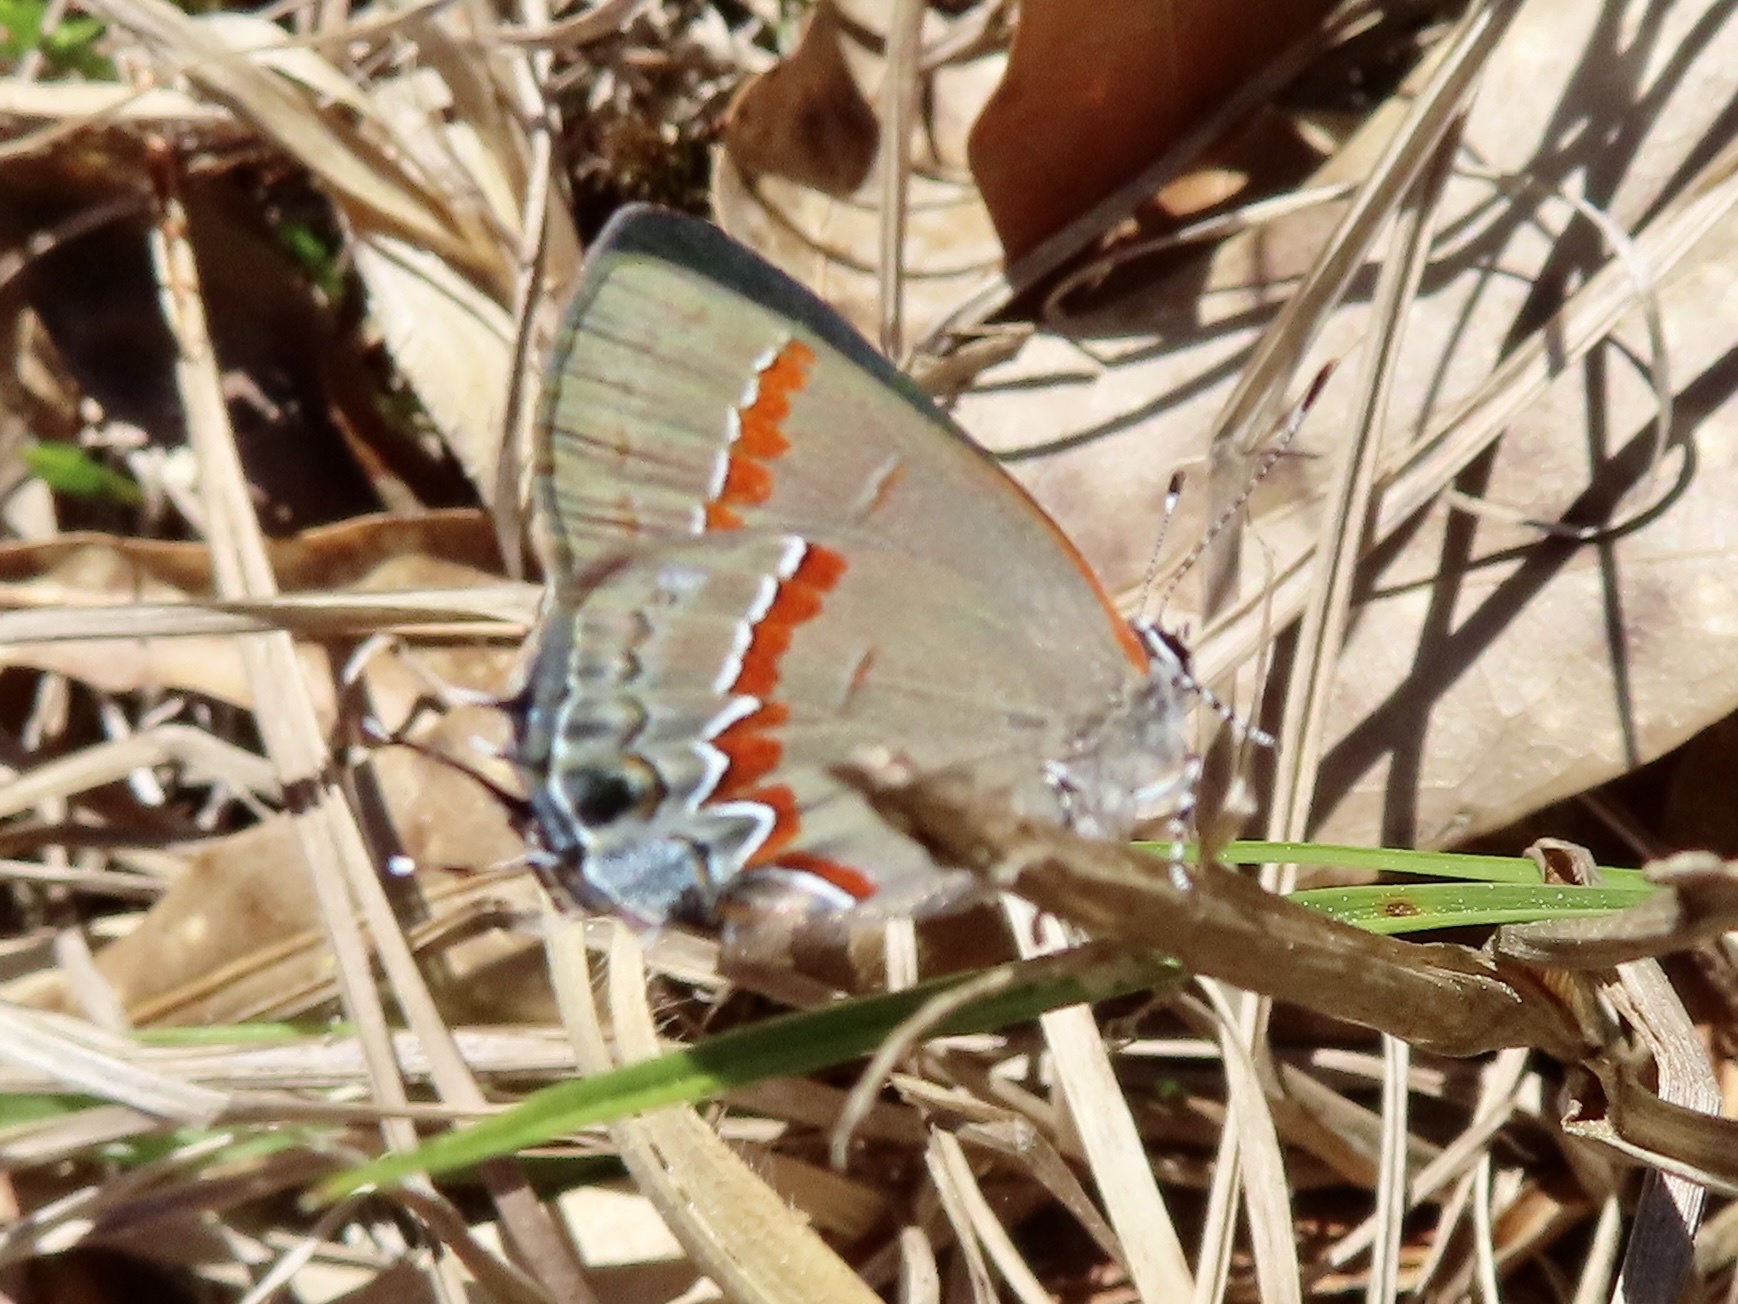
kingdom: Animalia
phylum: Arthropoda
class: Insecta
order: Lepidoptera
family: Lycaenidae
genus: Calycopis
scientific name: Calycopis cecrops
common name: Red-banded hairstreak
